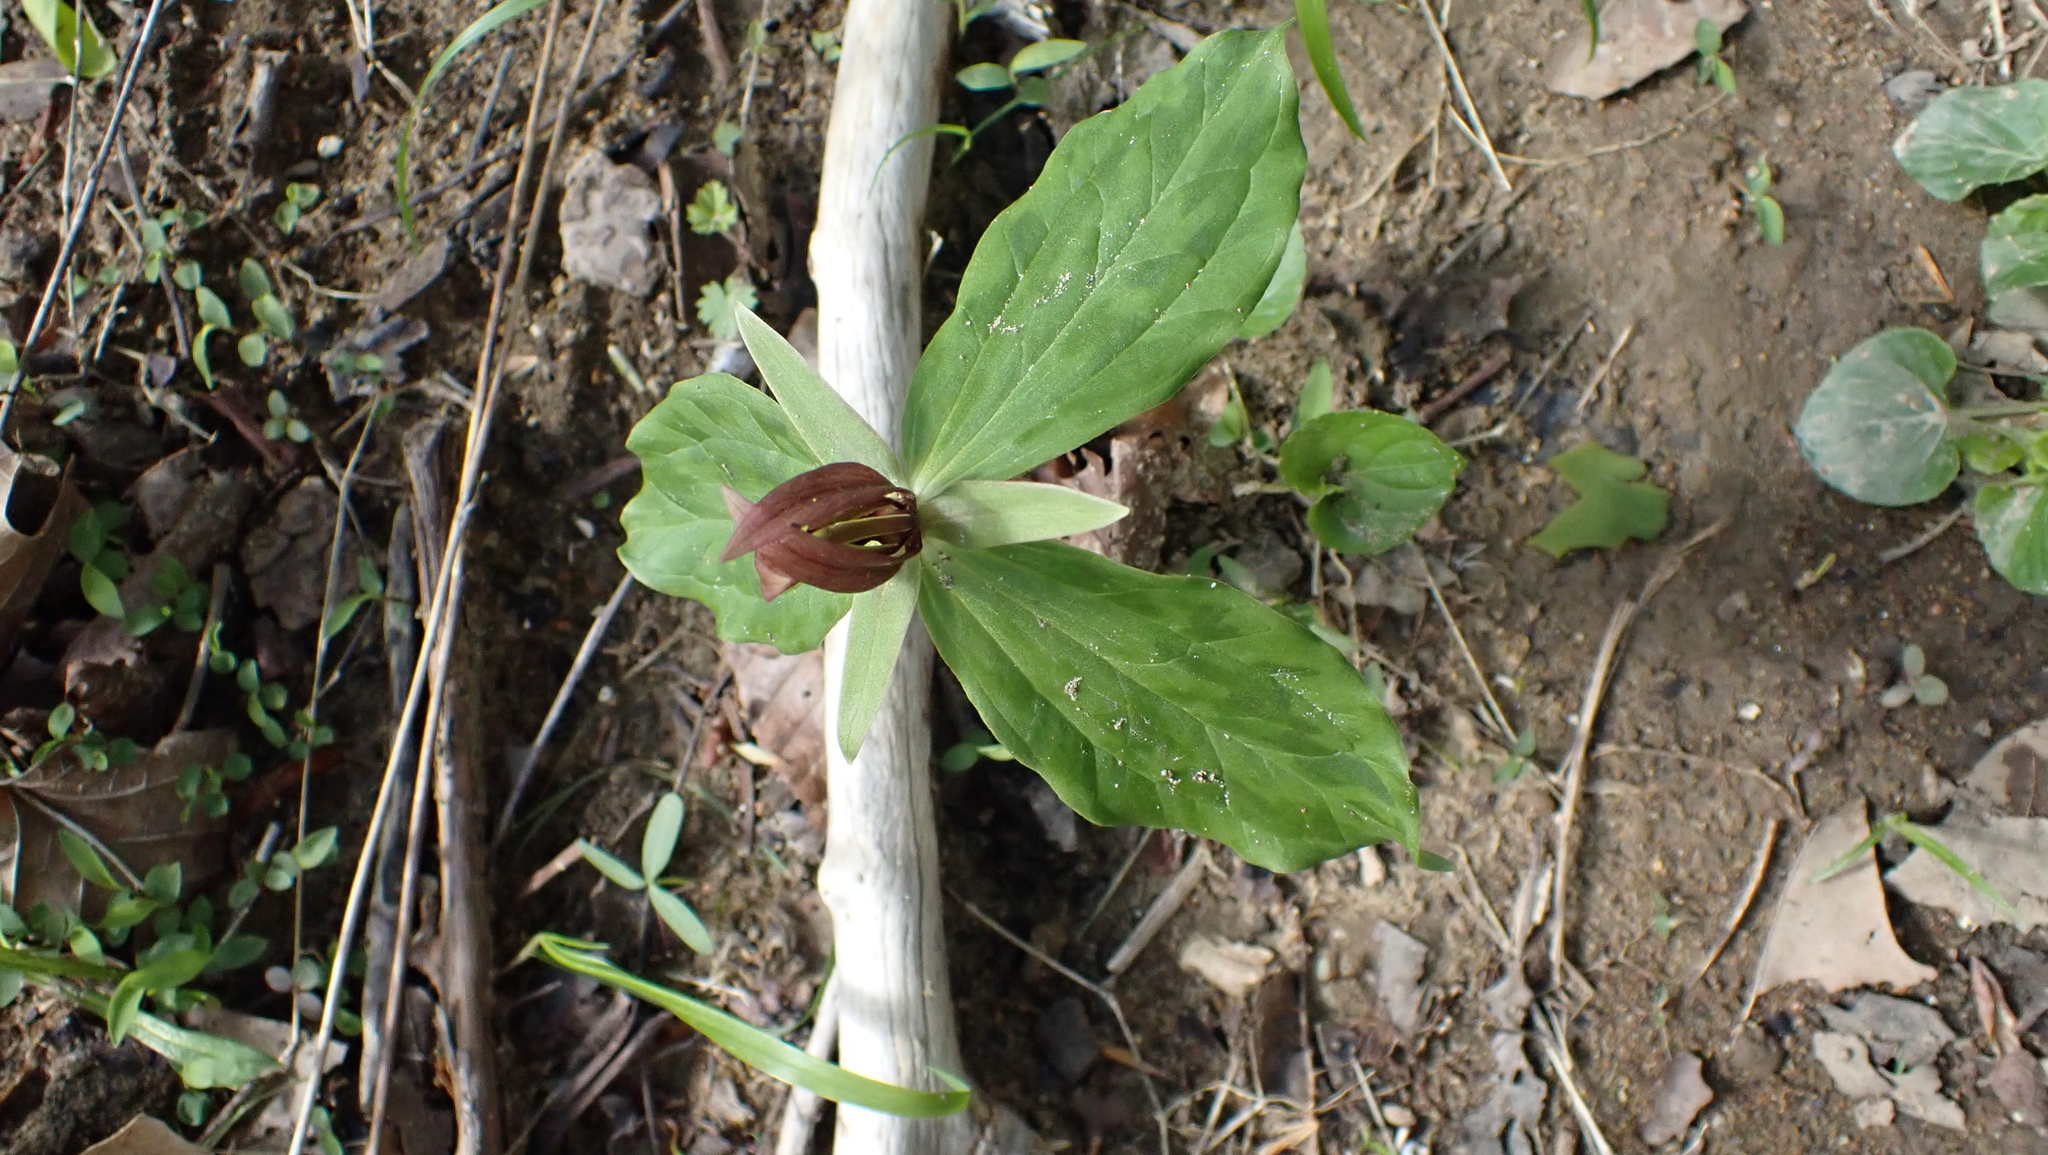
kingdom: Plantae
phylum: Tracheophyta
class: Liliopsida
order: Liliales
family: Melanthiaceae
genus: Trillium
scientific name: Trillium sessile
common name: Sessile trillium
